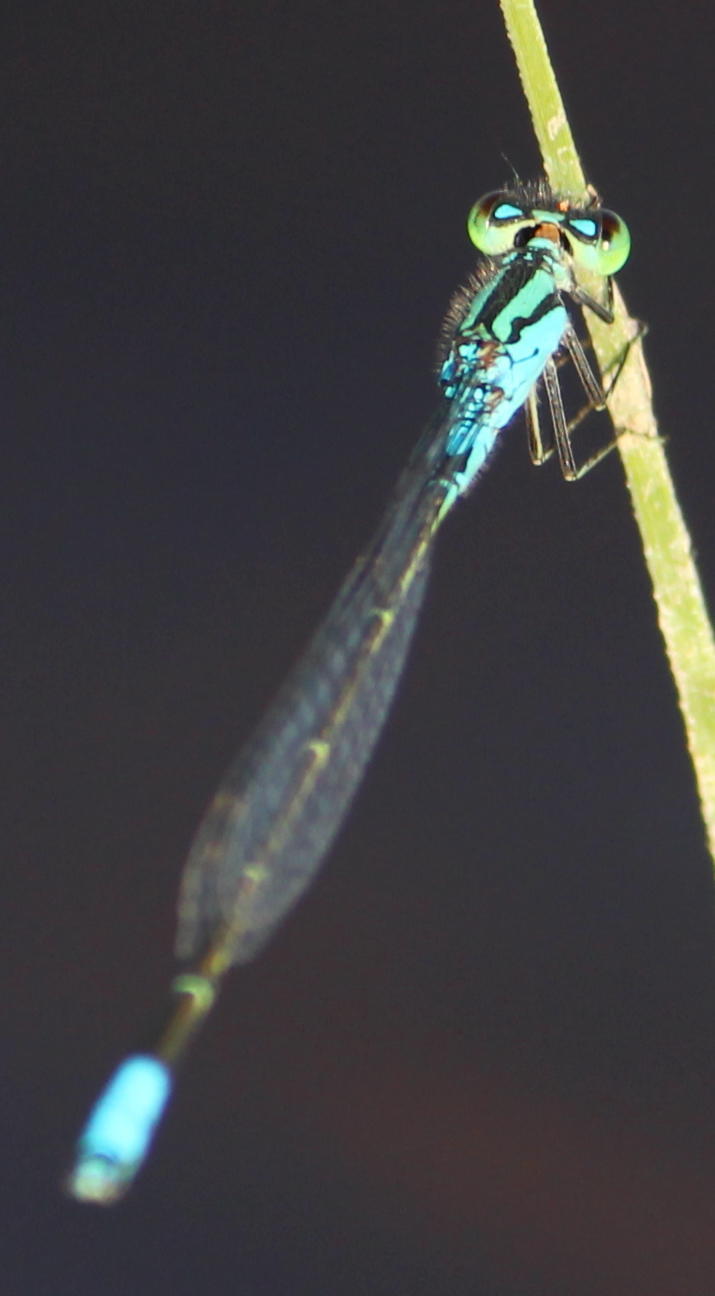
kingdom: Animalia
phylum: Arthropoda
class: Insecta
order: Odonata
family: Coenagrionidae
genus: Pseudagrion
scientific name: Pseudagrion coeleste
